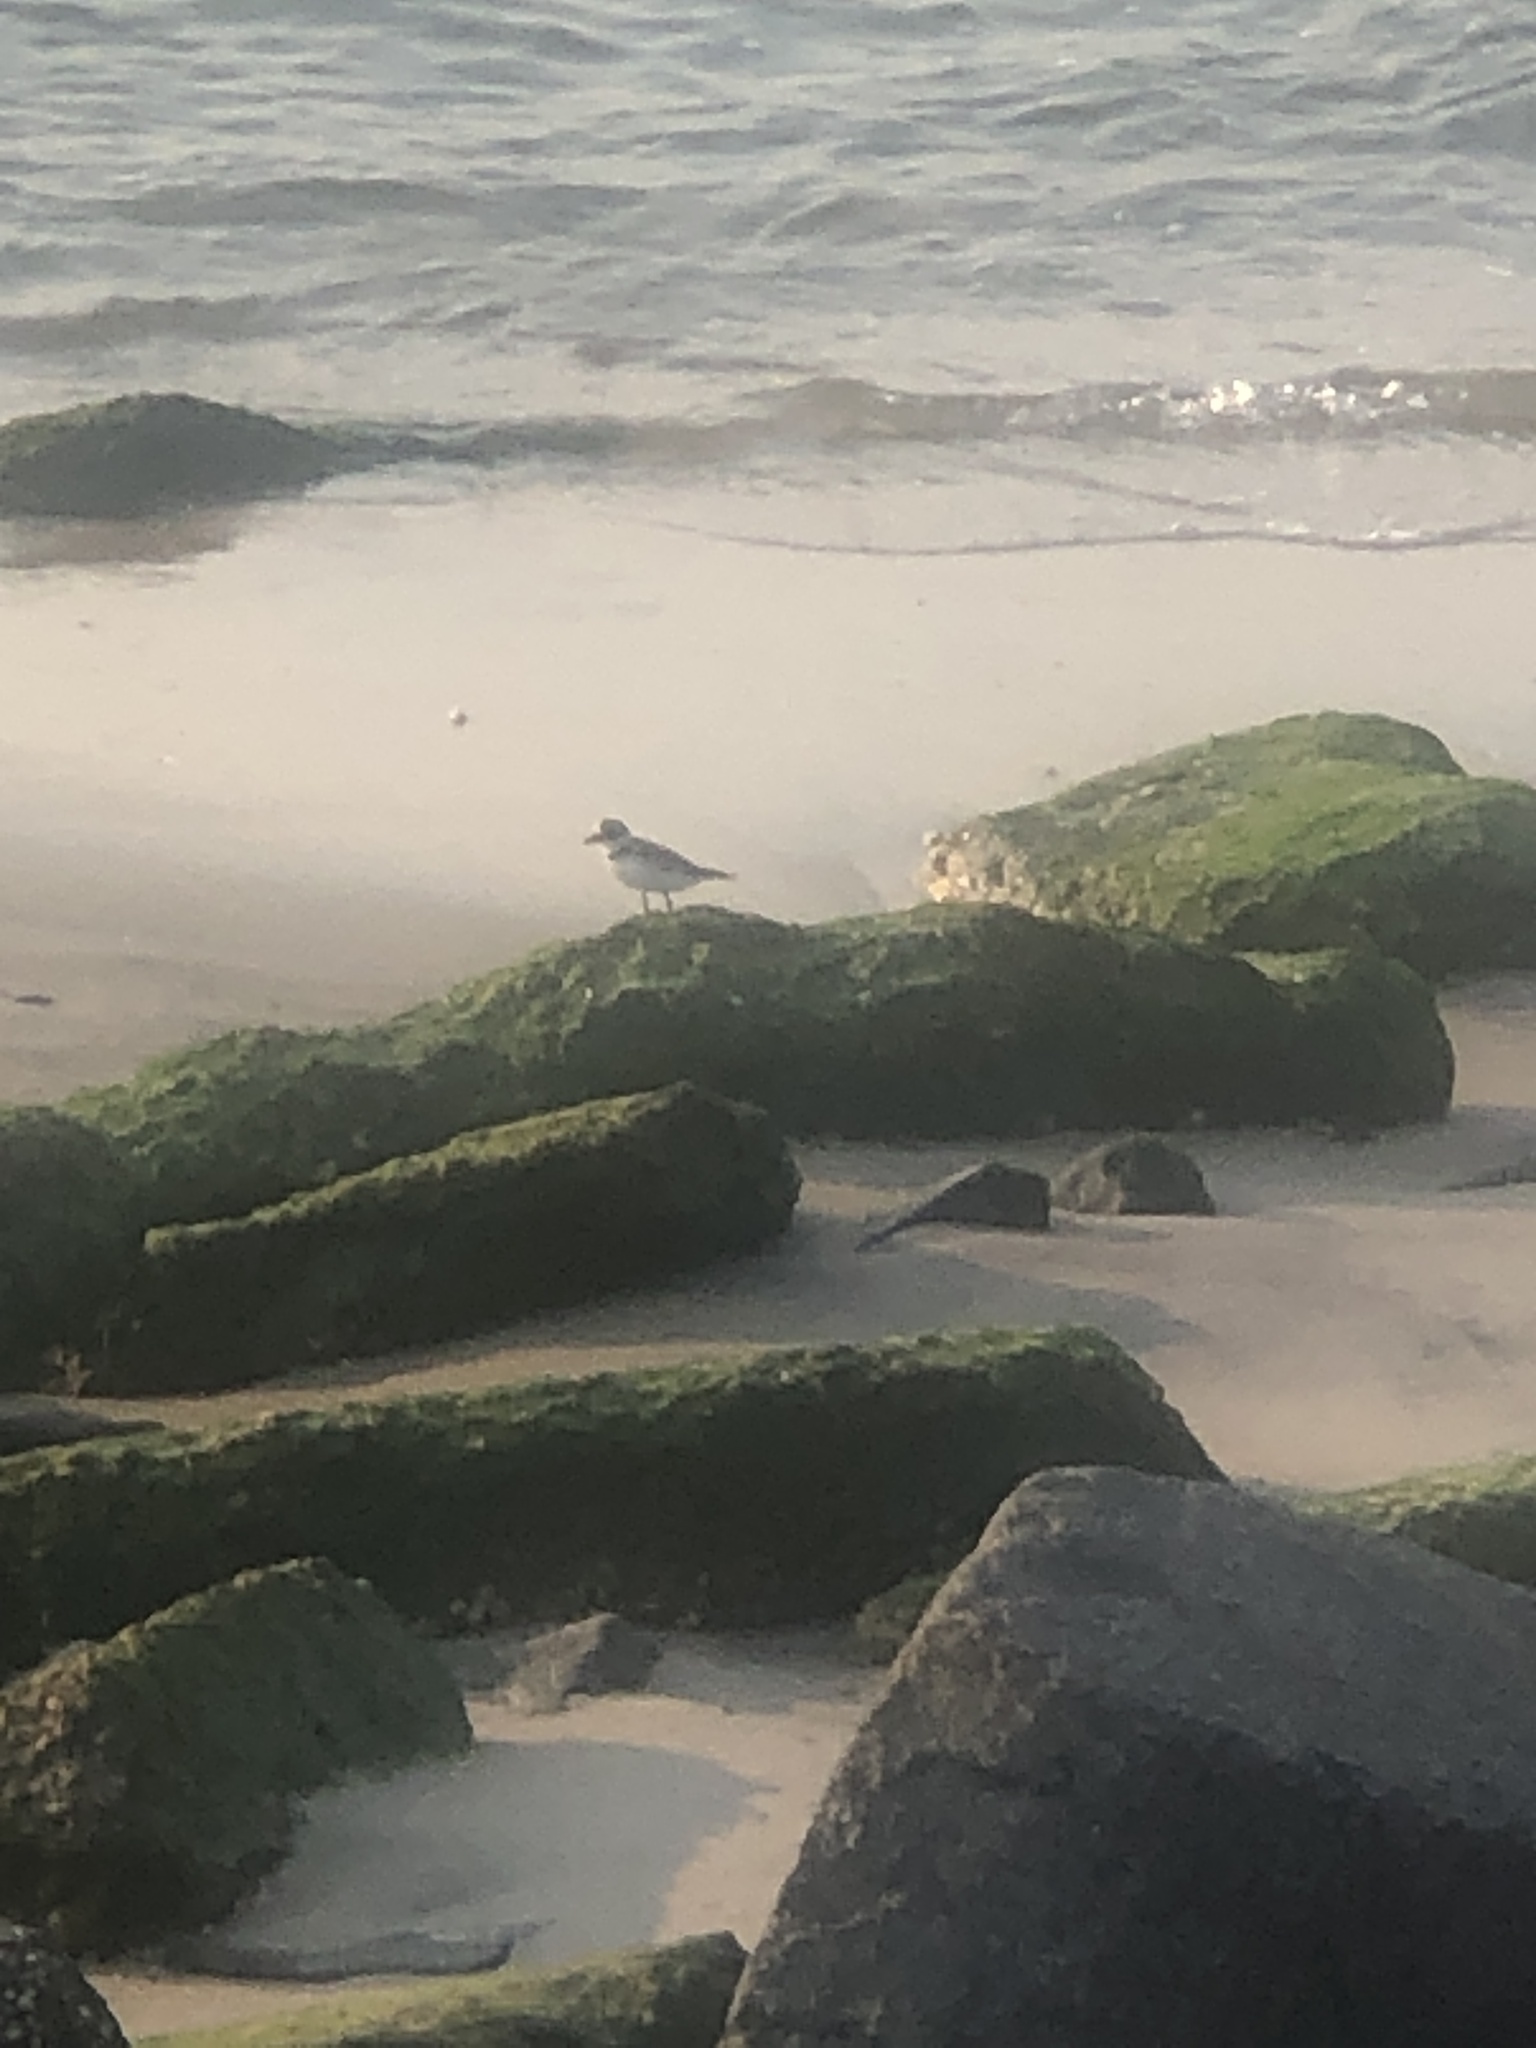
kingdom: Animalia
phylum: Chordata
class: Aves
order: Charadriiformes
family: Charadriidae
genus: Charadrius
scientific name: Charadrius semipalmatus
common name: Semipalmated plover
